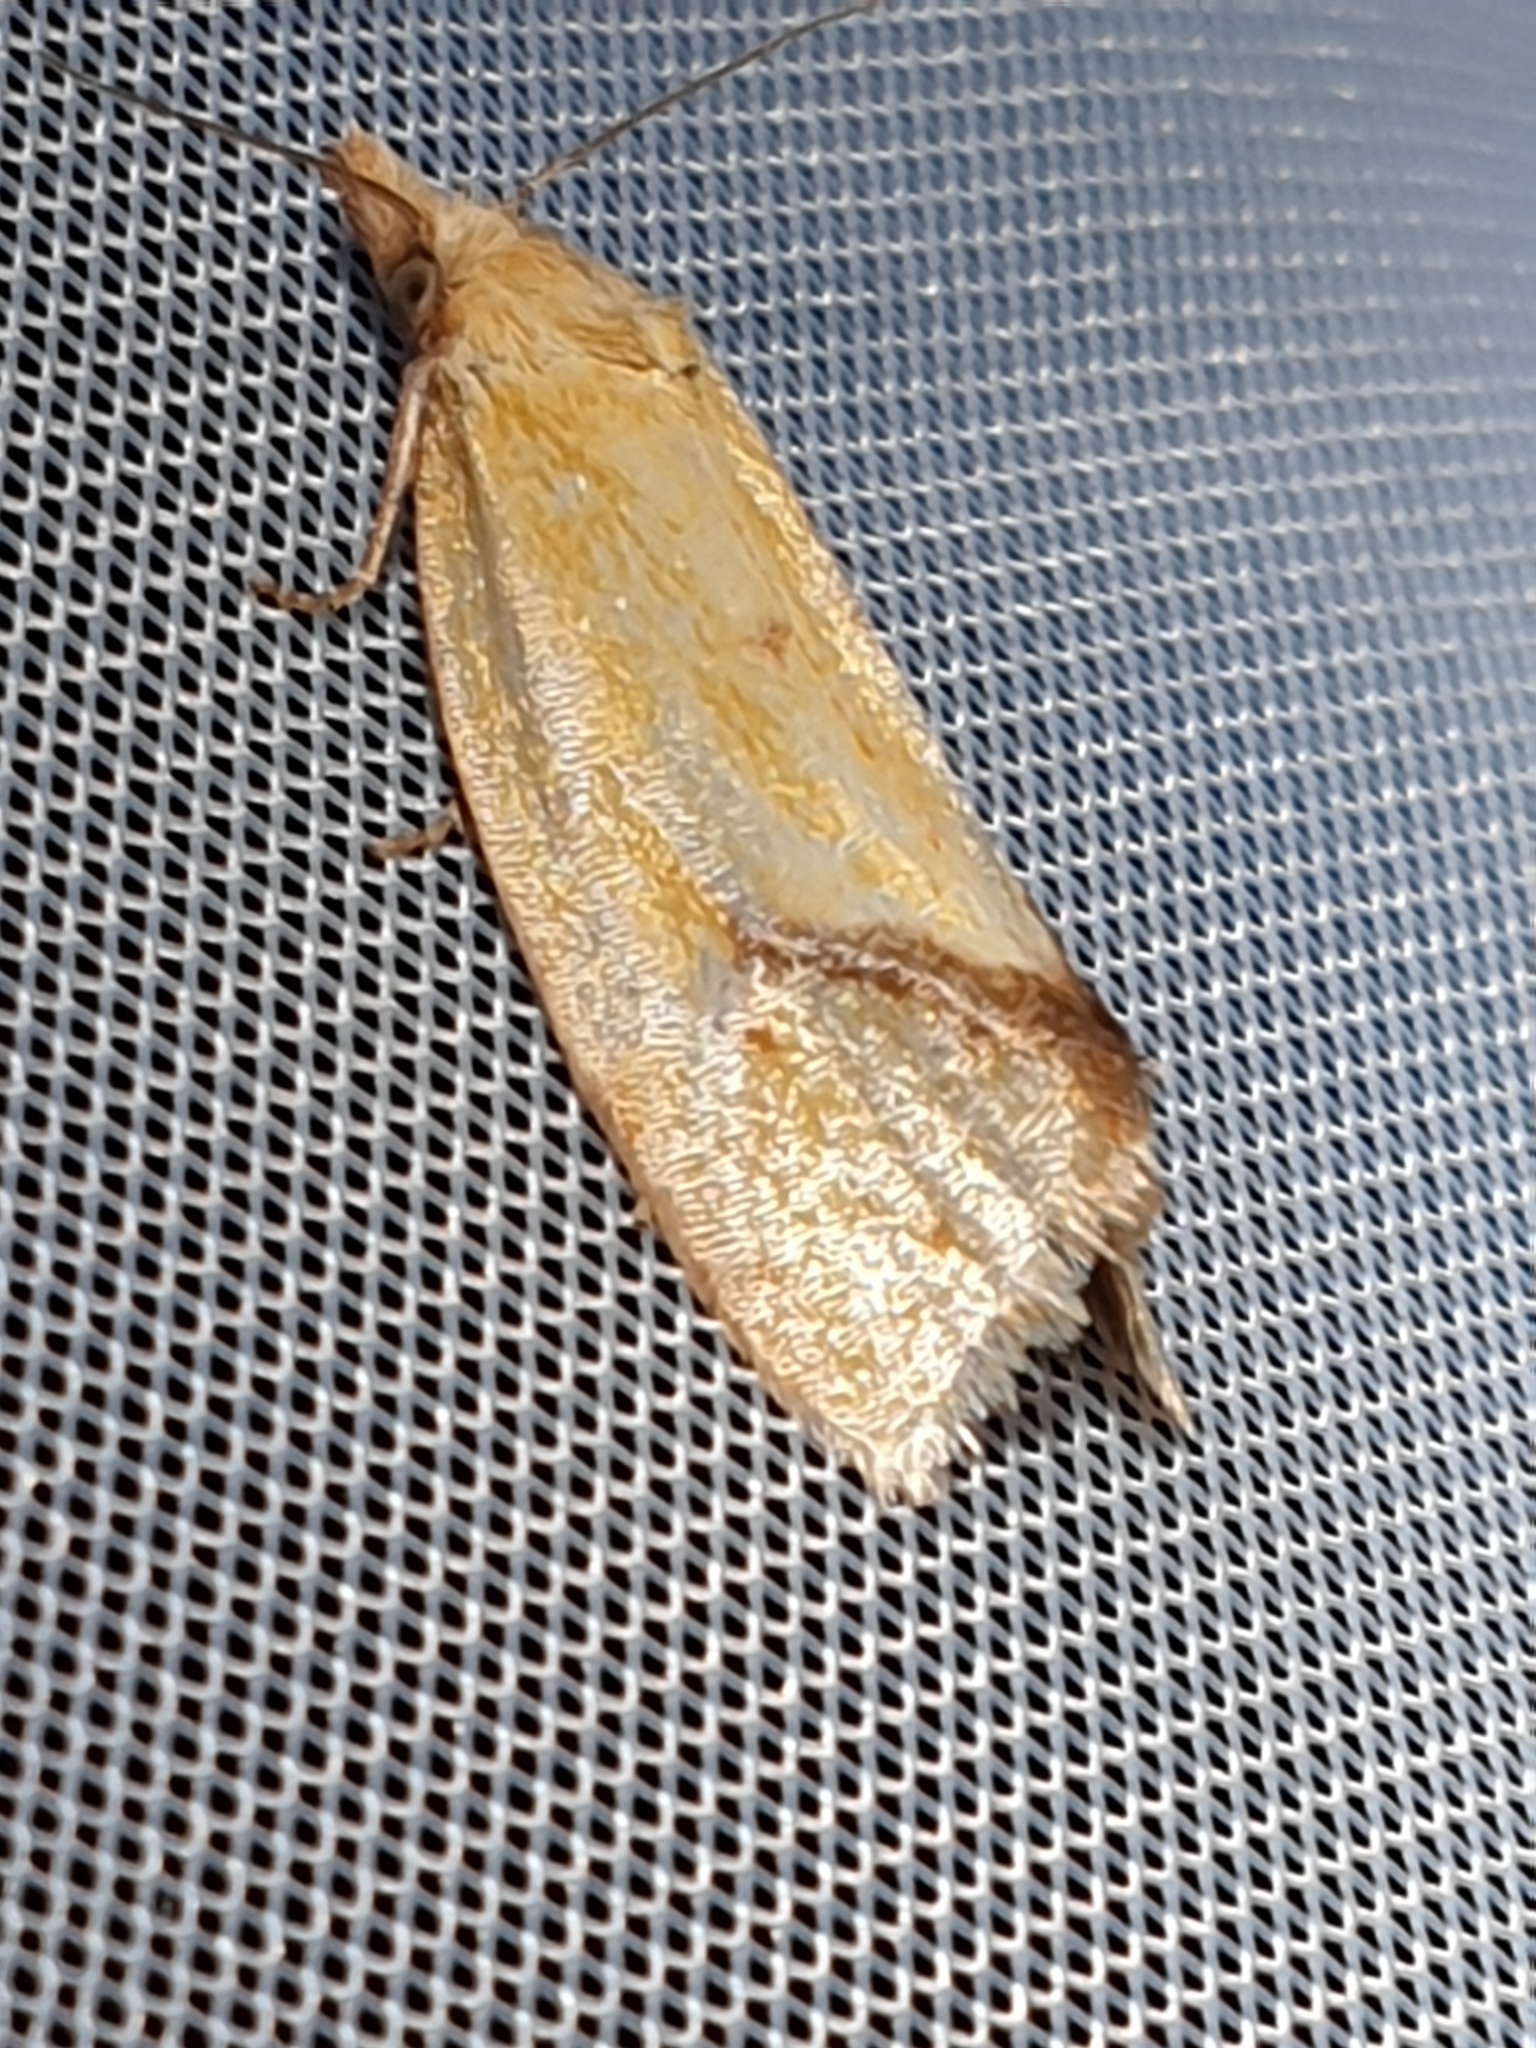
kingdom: Animalia
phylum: Arthropoda
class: Insecta
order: Lepidoptera
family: Tortricidae
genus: Agapeta
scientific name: Agapeta hamana
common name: Common yellow conch
